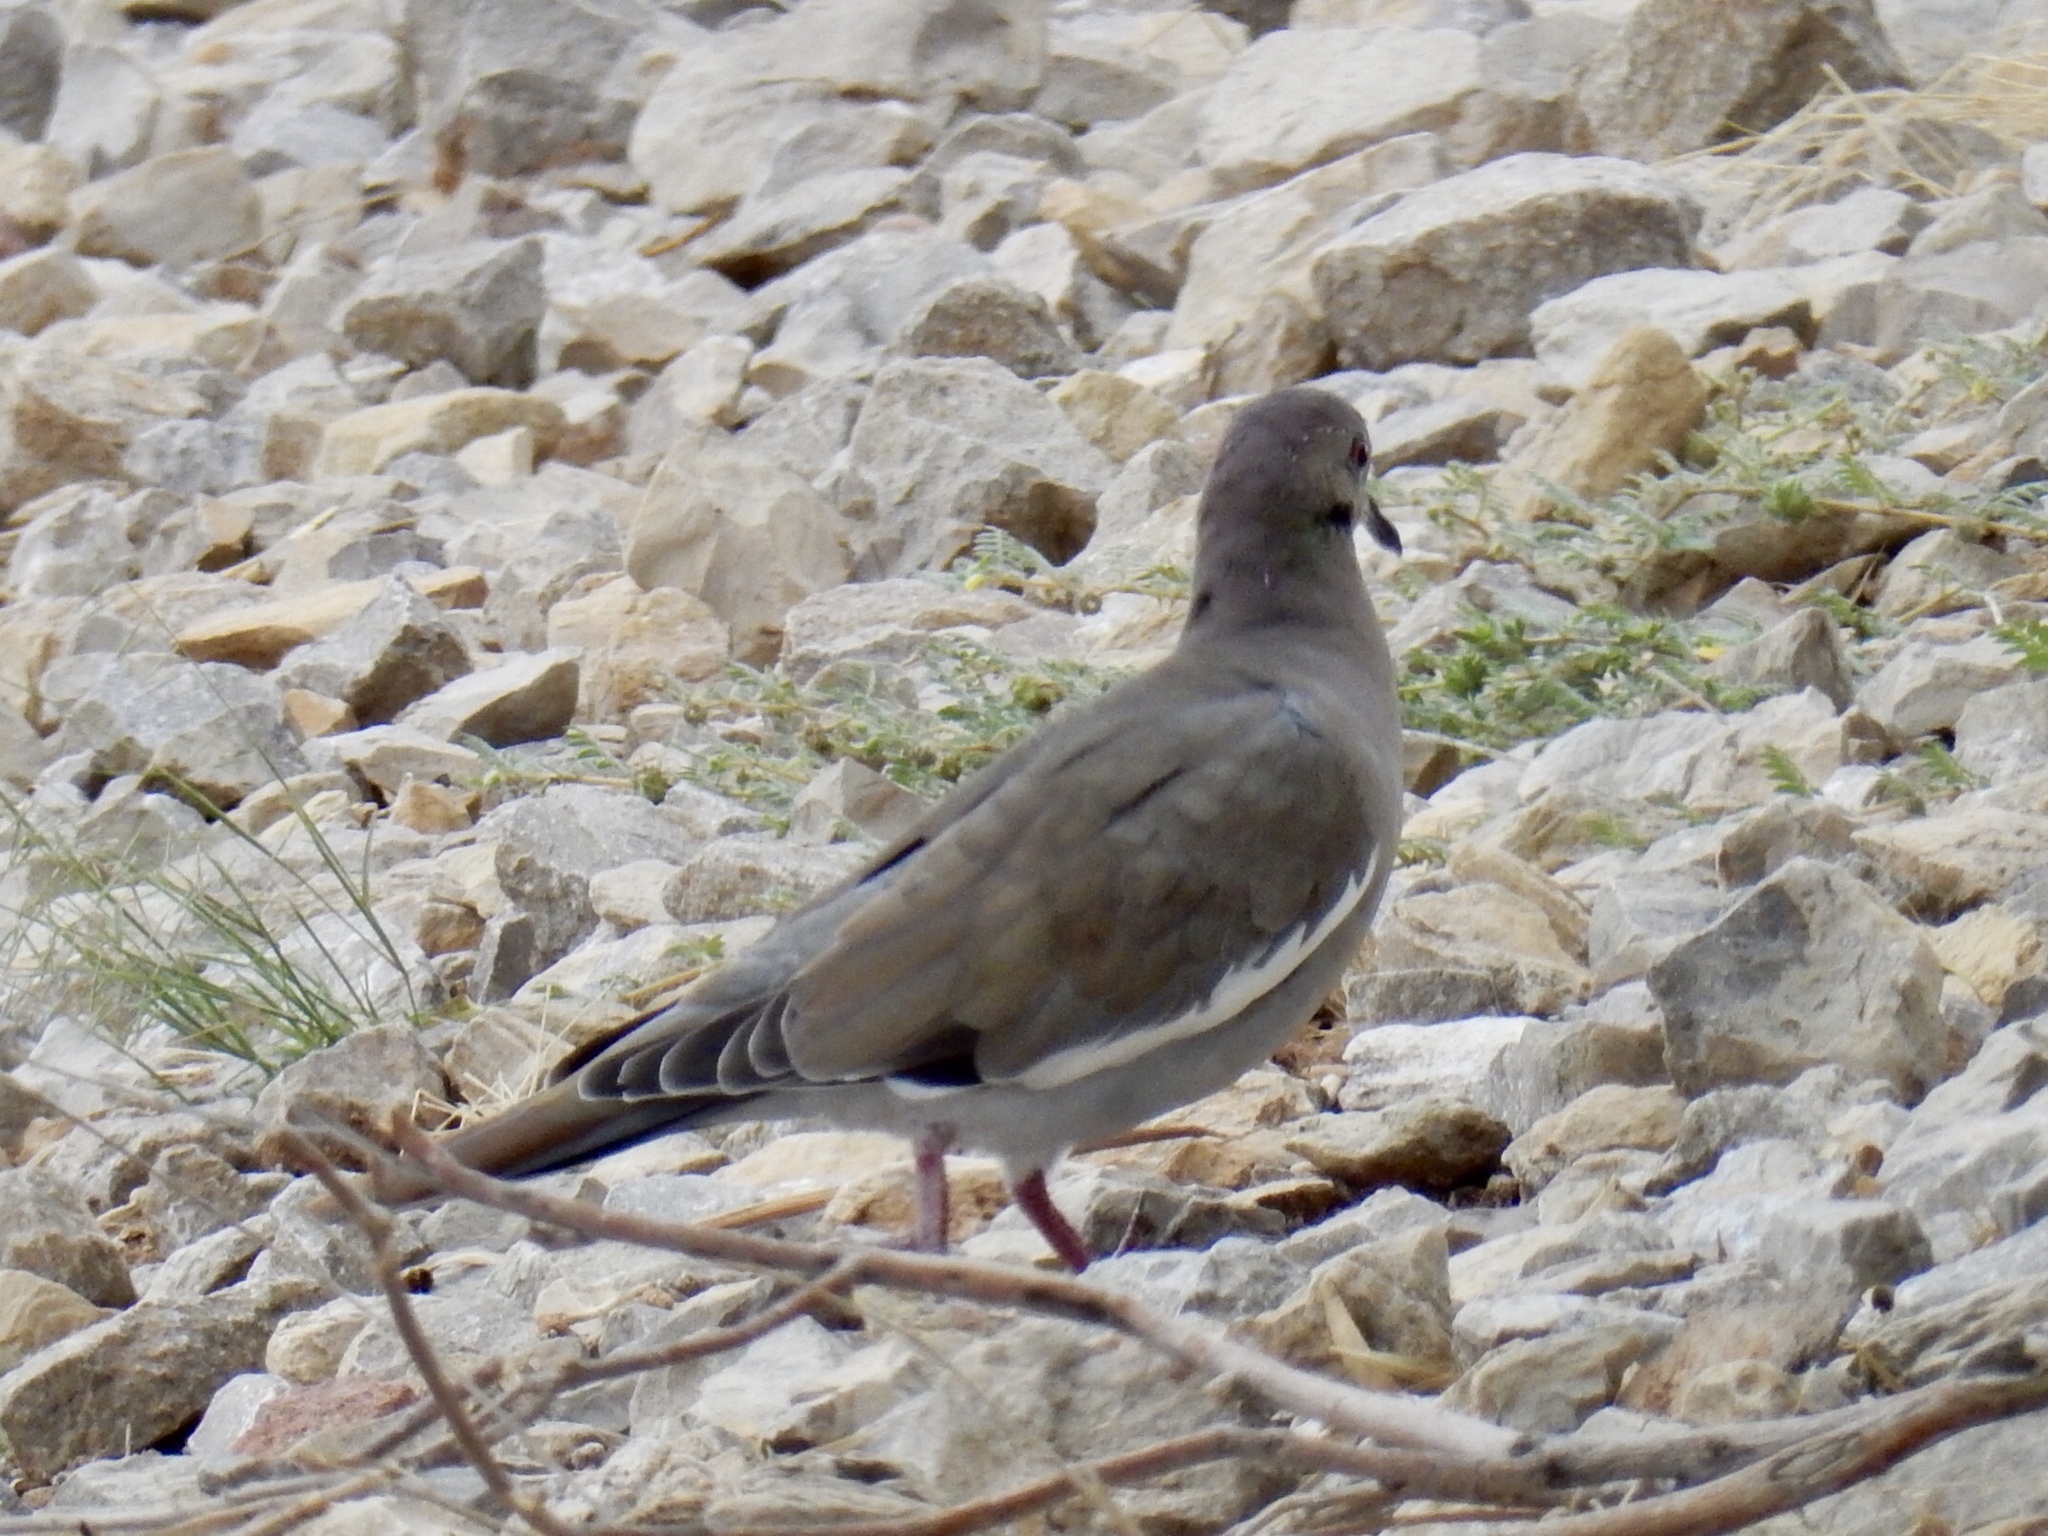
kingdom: Animalia
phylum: Chordata
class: Aves
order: Columbiformes
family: Columbidae
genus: Zenaida
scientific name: Zenaida asiatica
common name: White-winged dove
